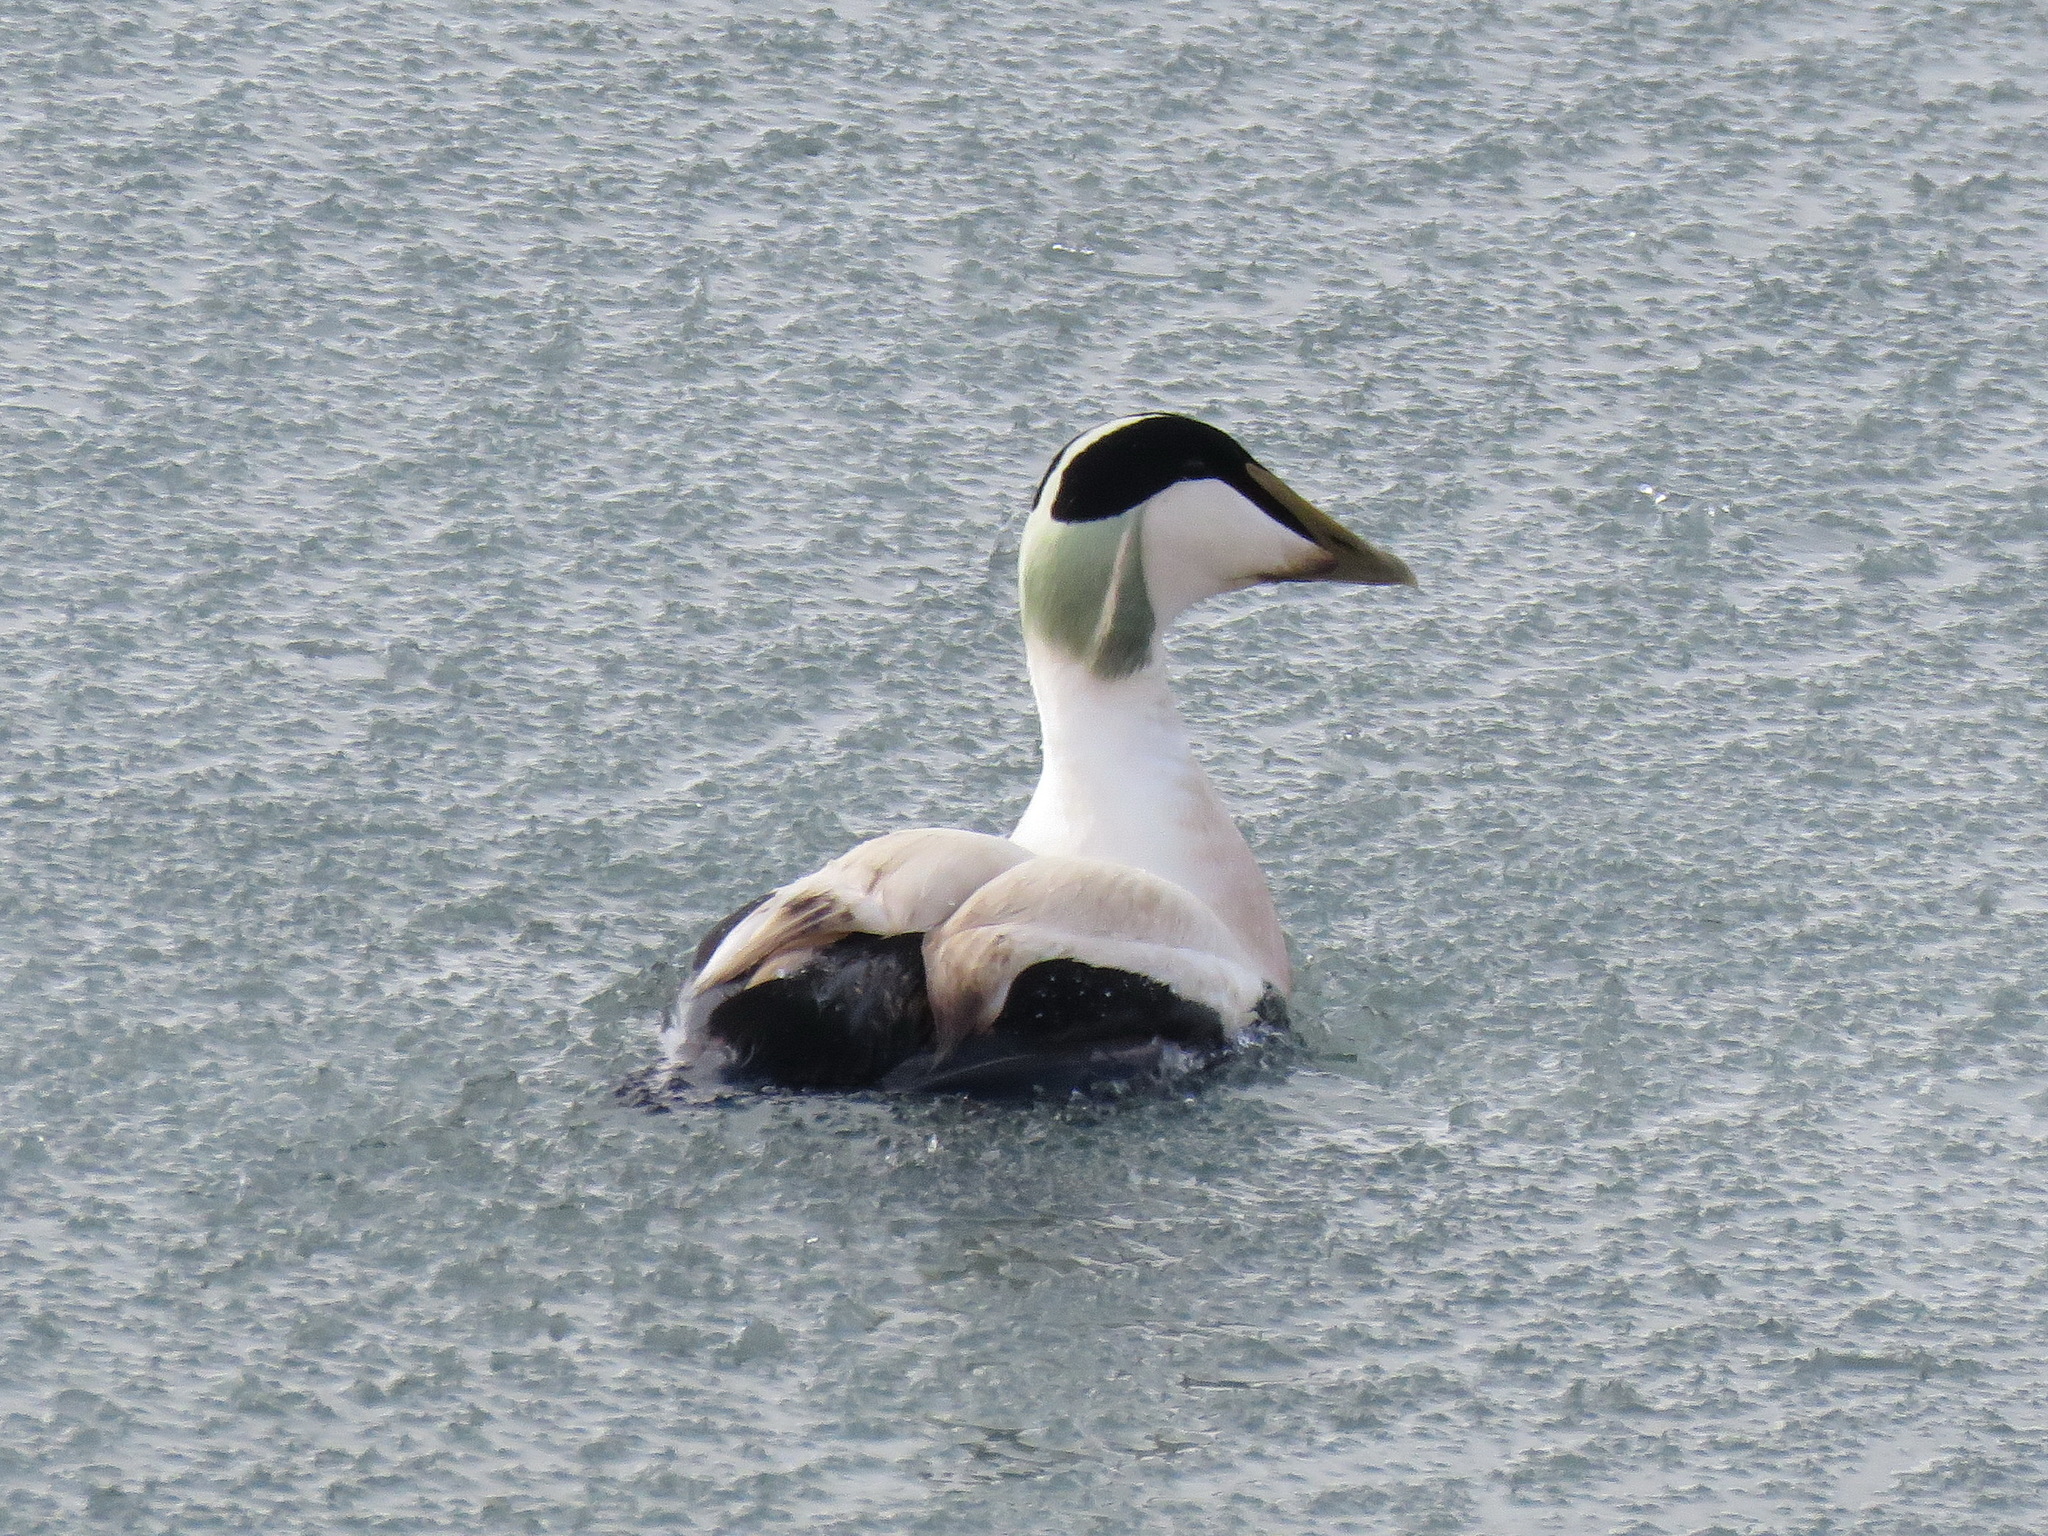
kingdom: Animalia
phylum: Chordata
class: Aves
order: Anseriformes
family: Anatidae
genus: Somateria
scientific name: Somateria mollissima
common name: Common eider
